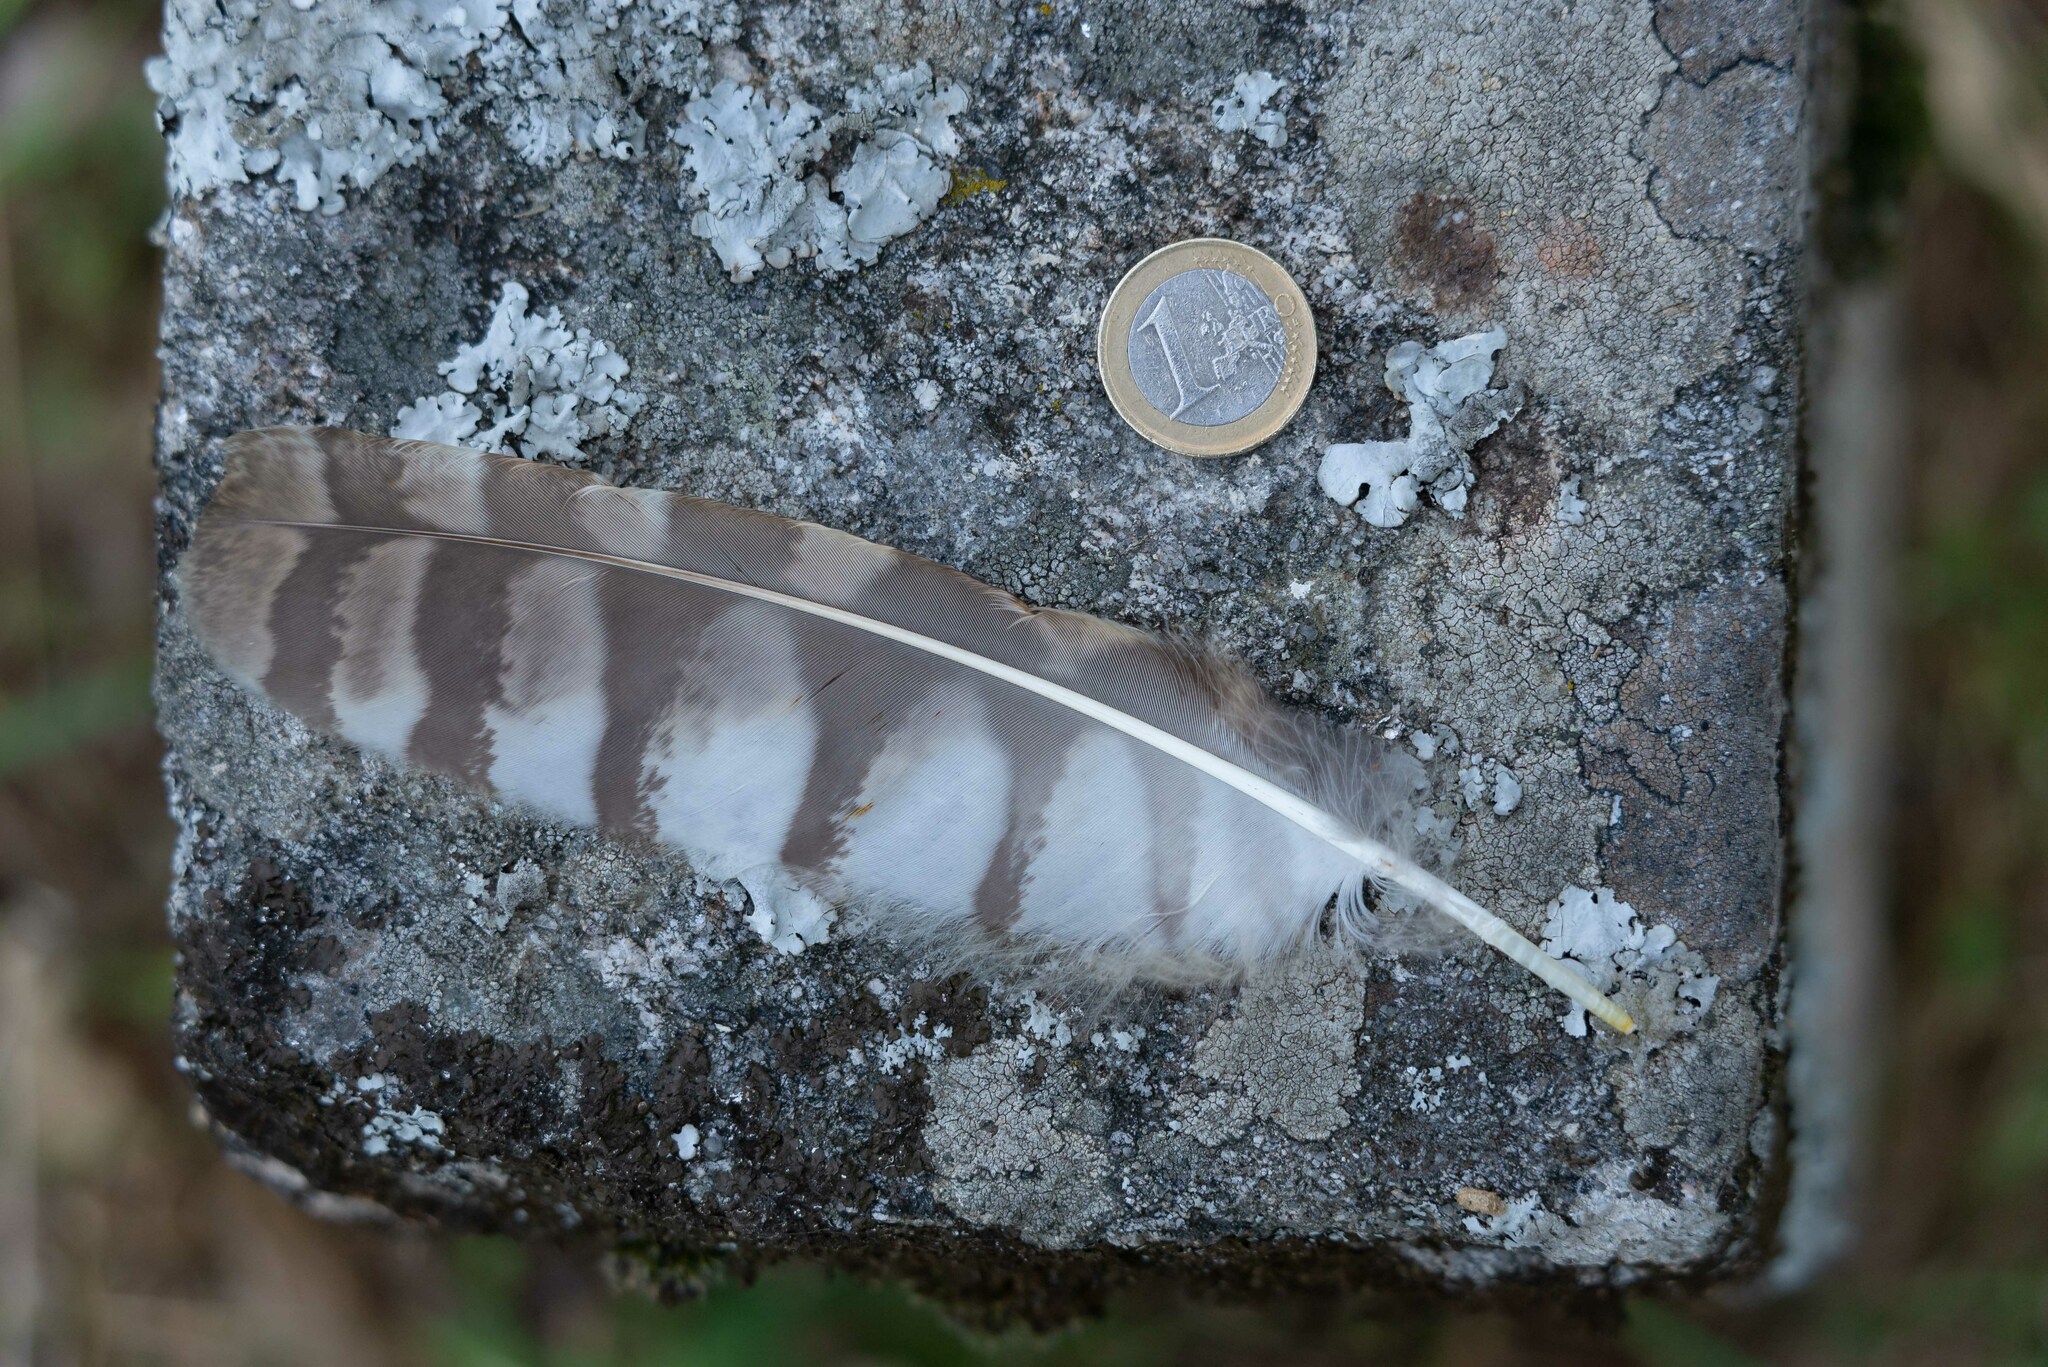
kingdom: Animalia
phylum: Chordata
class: Aves
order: Strigiformes
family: Strigidae
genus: Strix
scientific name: Strix aluco
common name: Tawny owl
